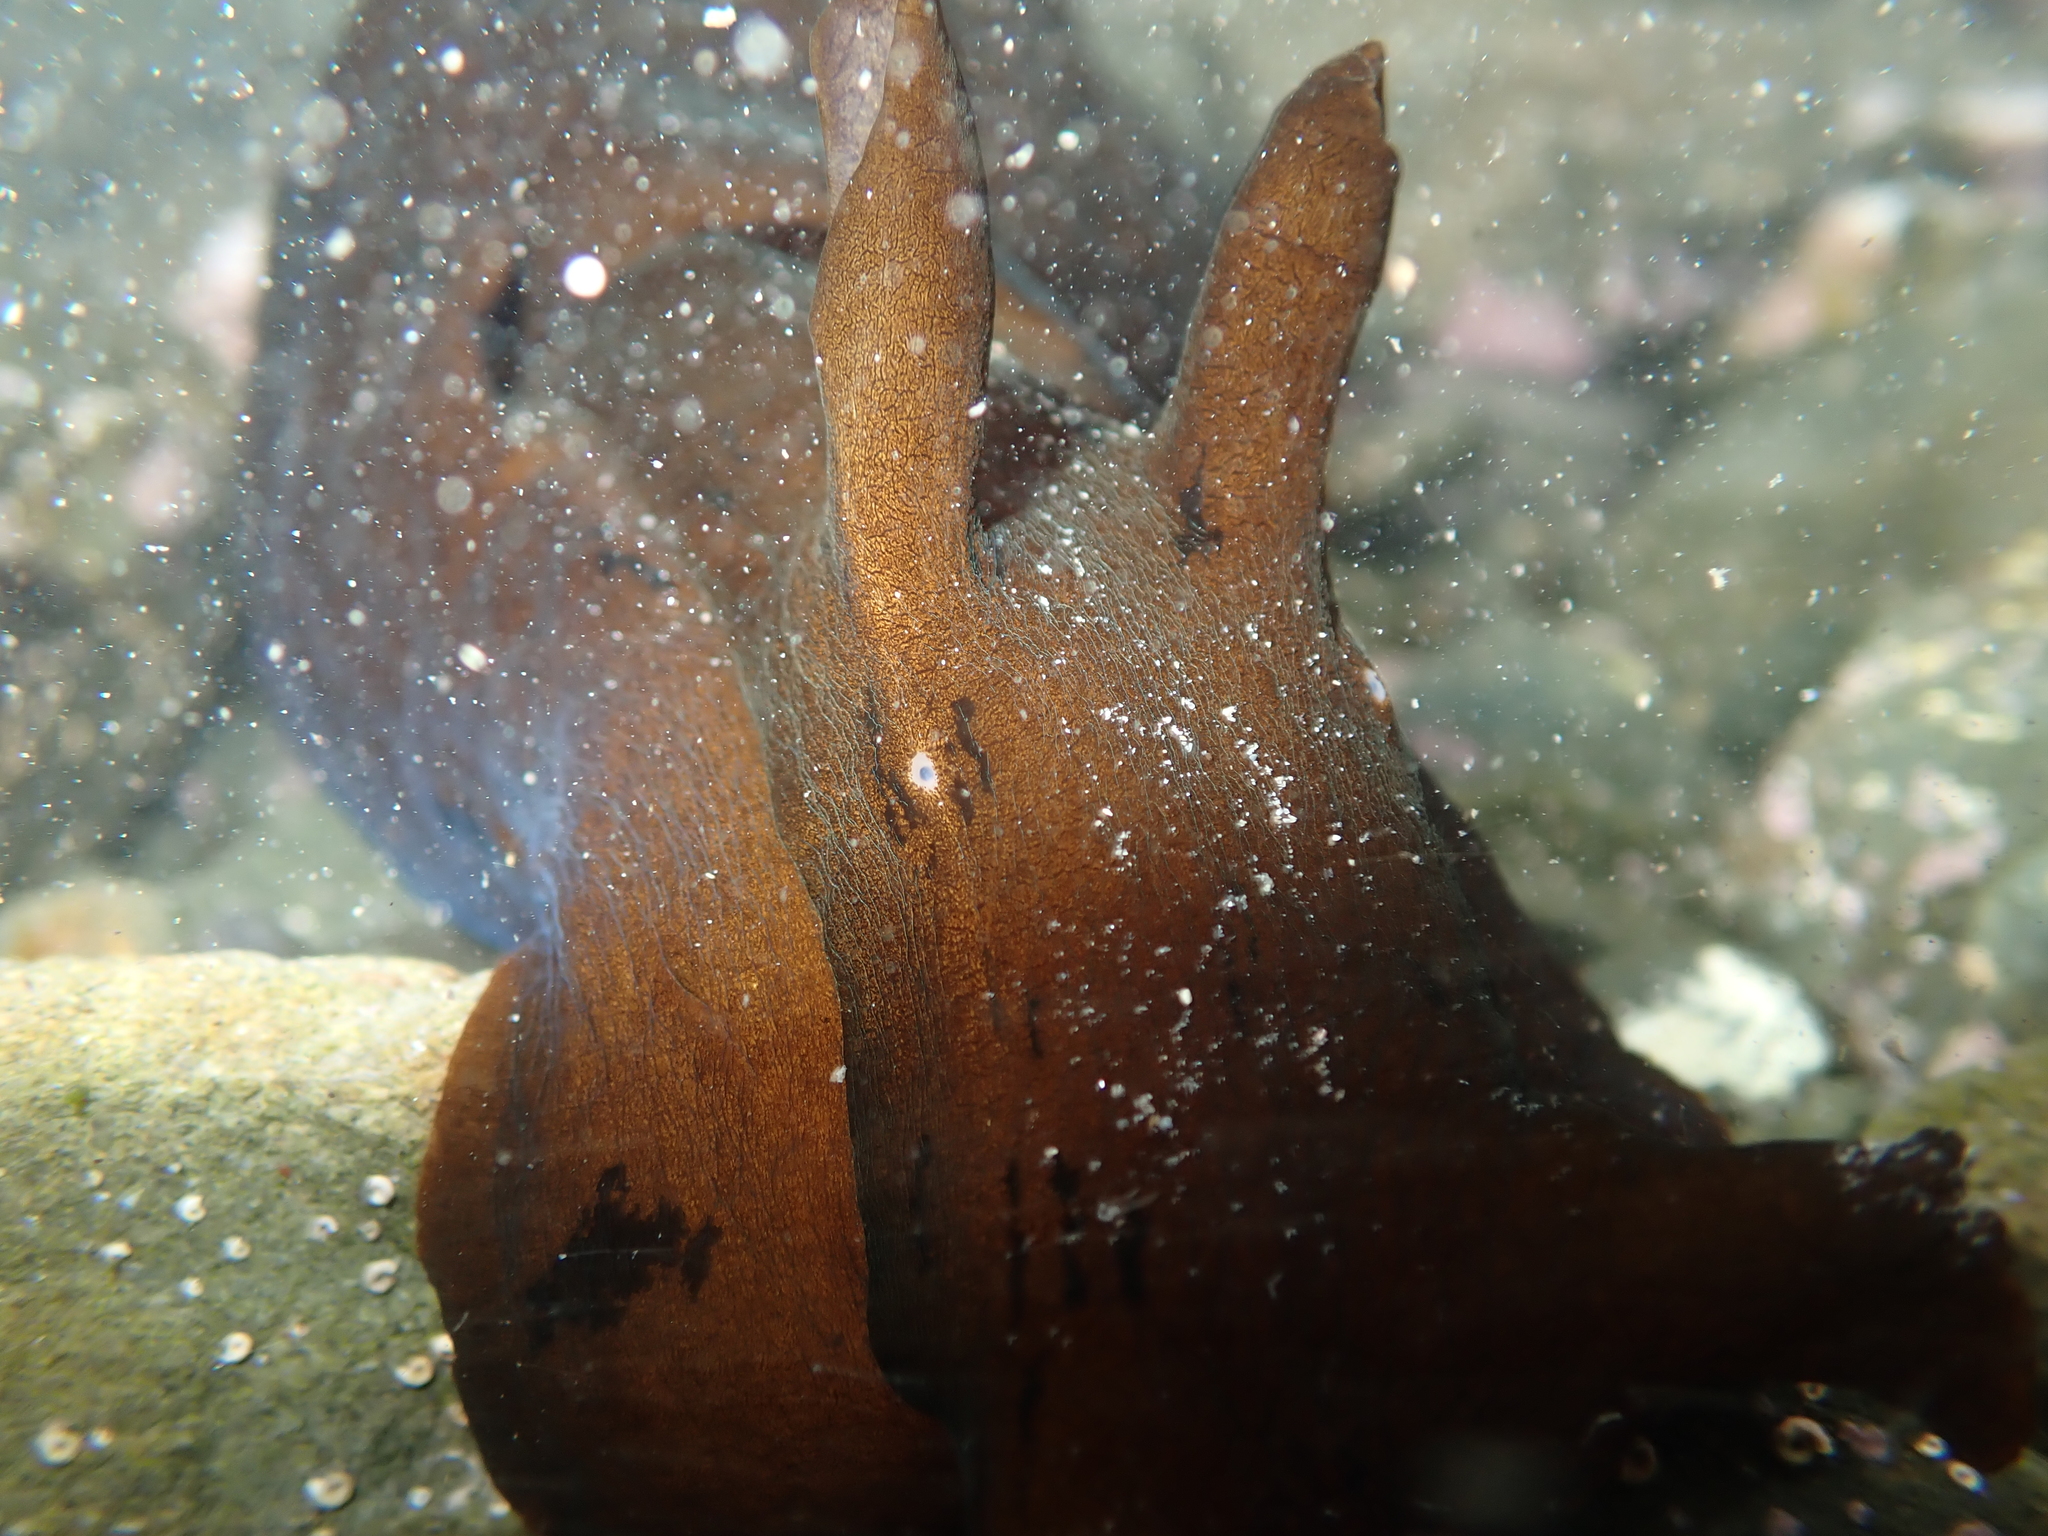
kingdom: Animalia
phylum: Mollusca
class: Gastropoda
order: Aplysiida
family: Aplysiidae
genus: Aplysia
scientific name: Aplysia juliana
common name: Walking sea hare
